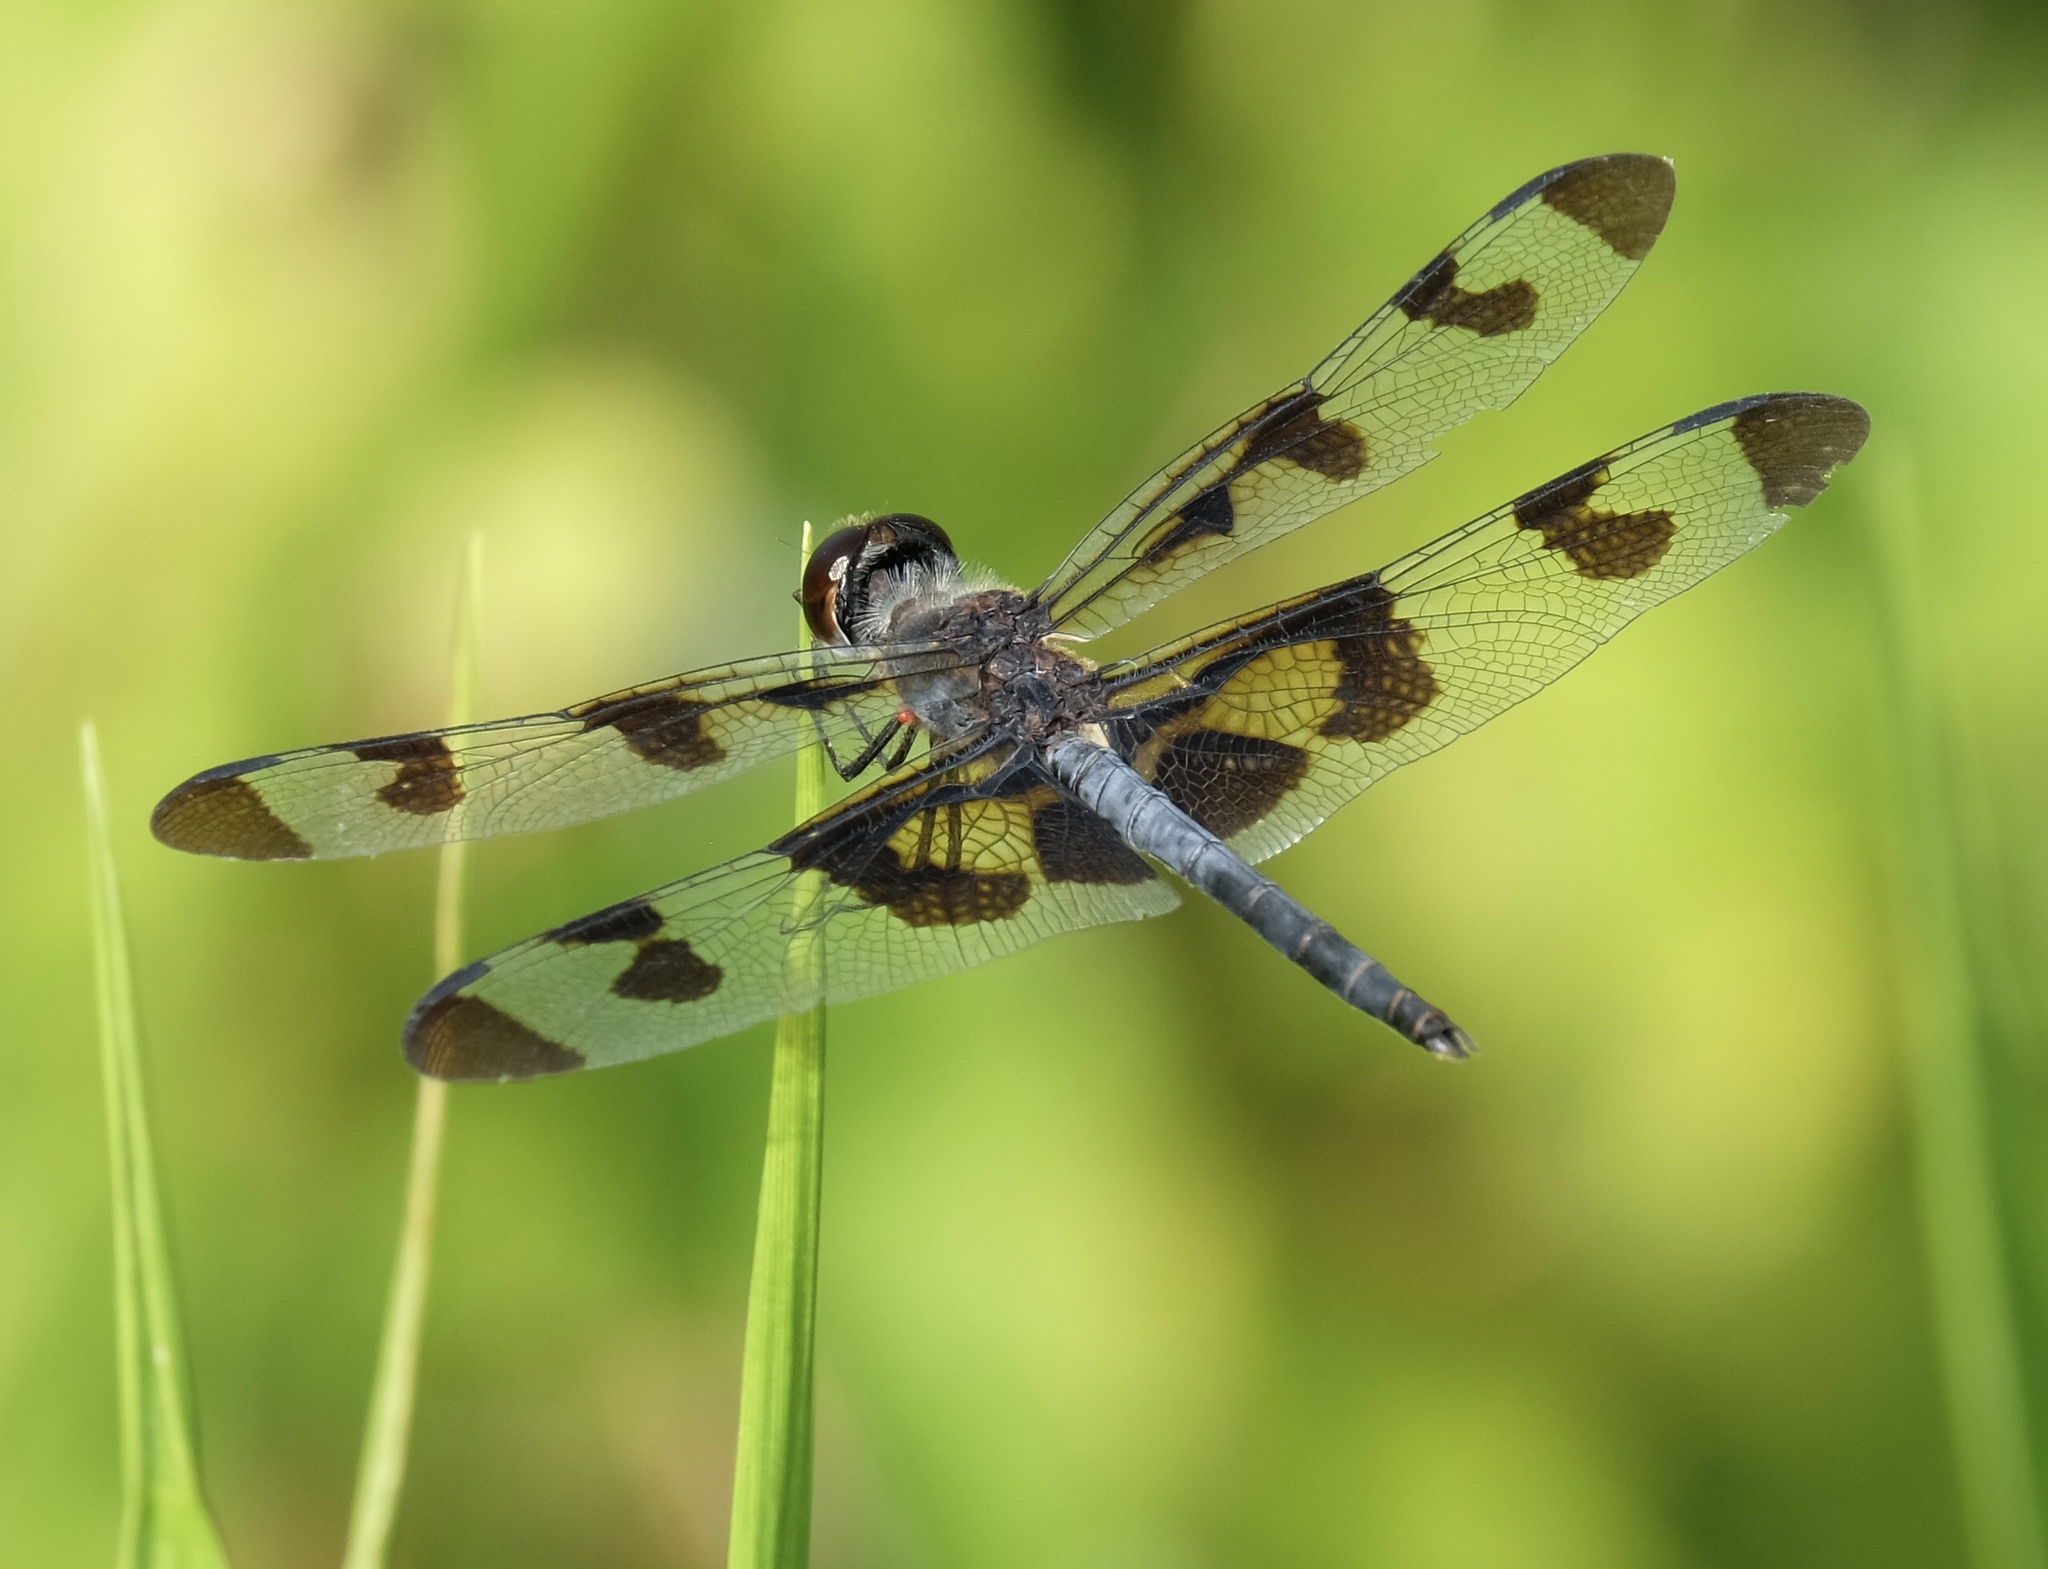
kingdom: Animalia
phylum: Arthropoda
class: Insecta
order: Odonata
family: Libellulidae
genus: Celithemis
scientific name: Celithemis fasciata
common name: Banded pennant
